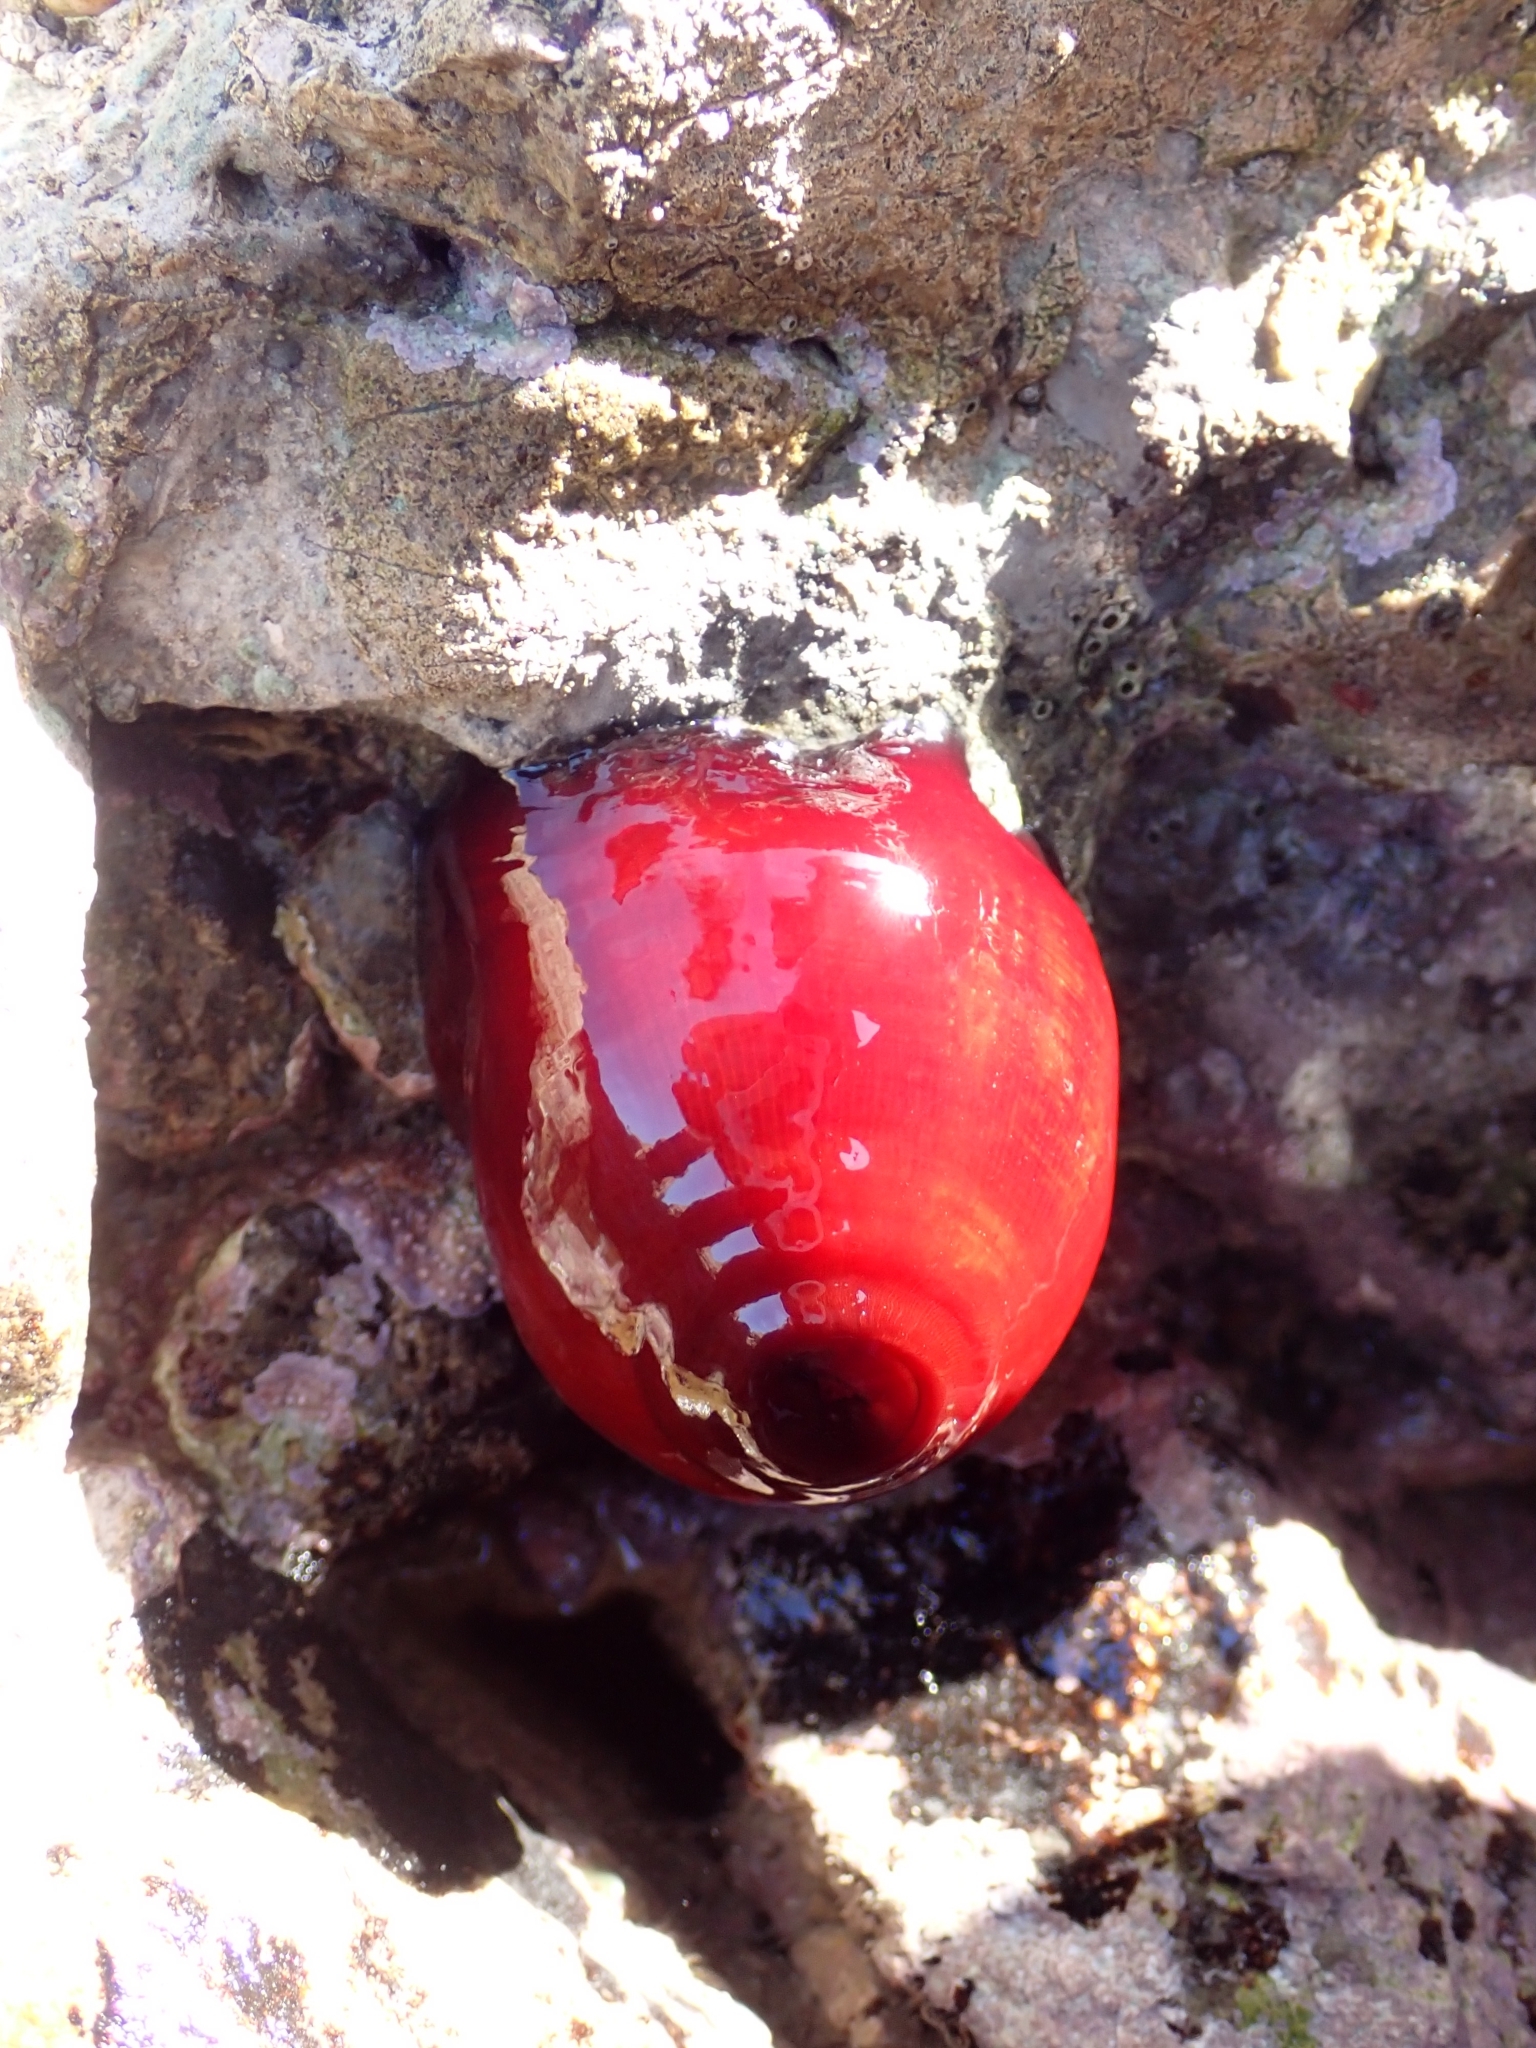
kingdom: Animalia
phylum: Cnidaria
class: Anthozoa
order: Actiniaria
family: Actiniidae
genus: Actinia
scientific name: Actinia mediterranea
